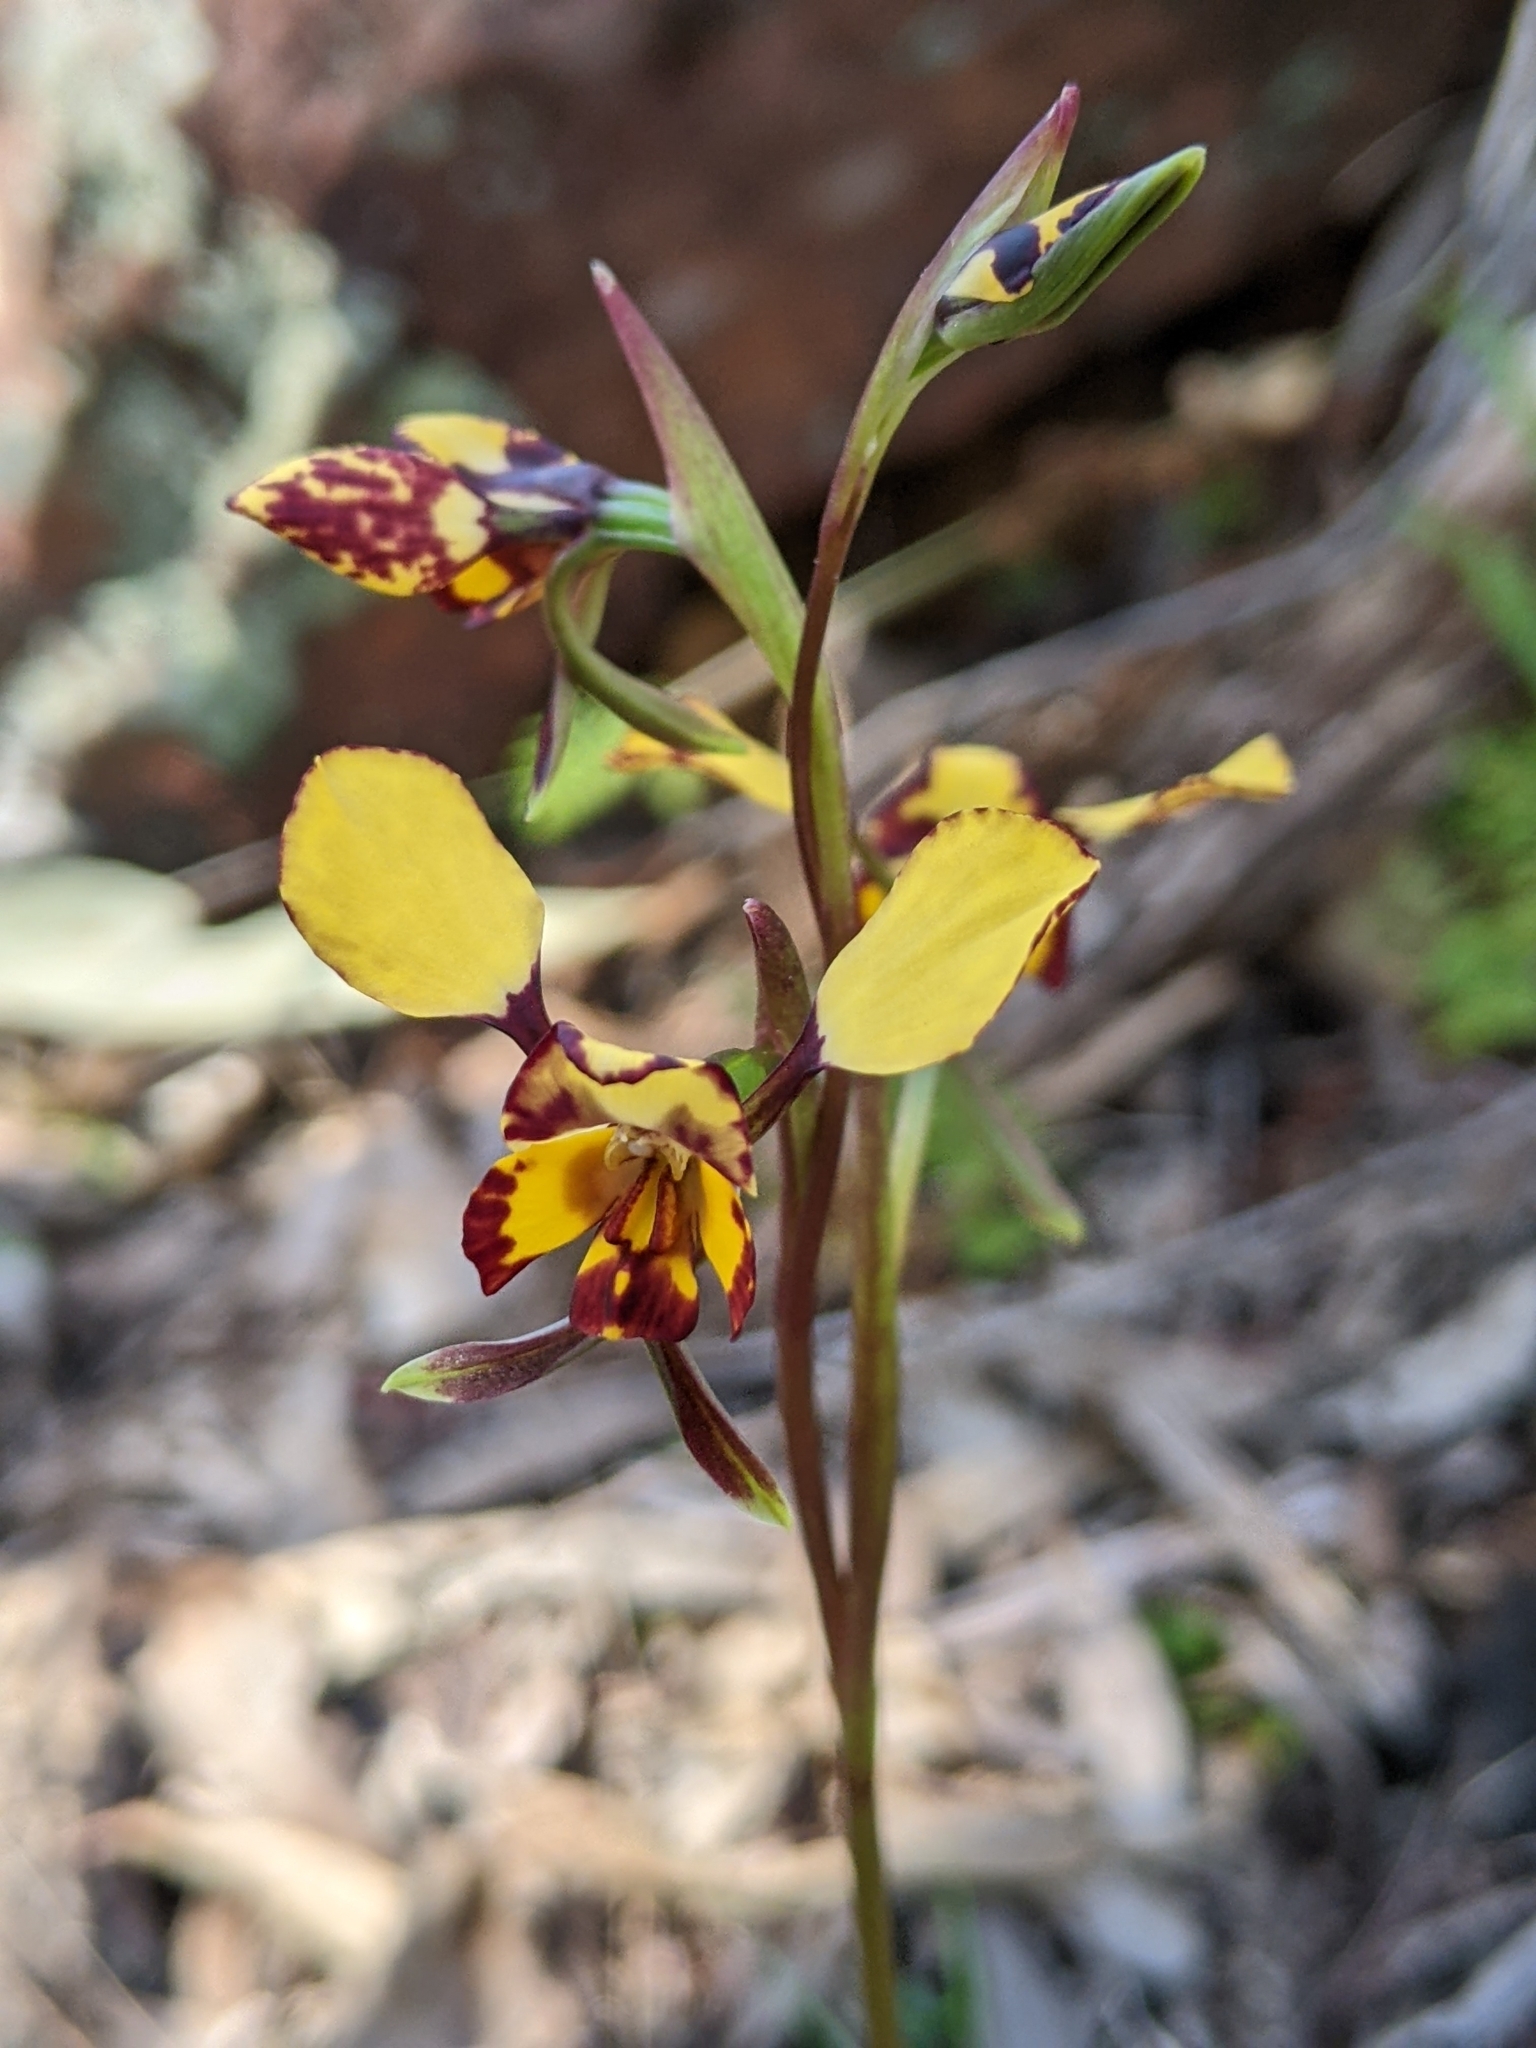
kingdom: Plantae
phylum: Tracheophyta
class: Liliopsida
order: Asparagales
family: Orchidaceae
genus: Diuris
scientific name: Diuris pardina
